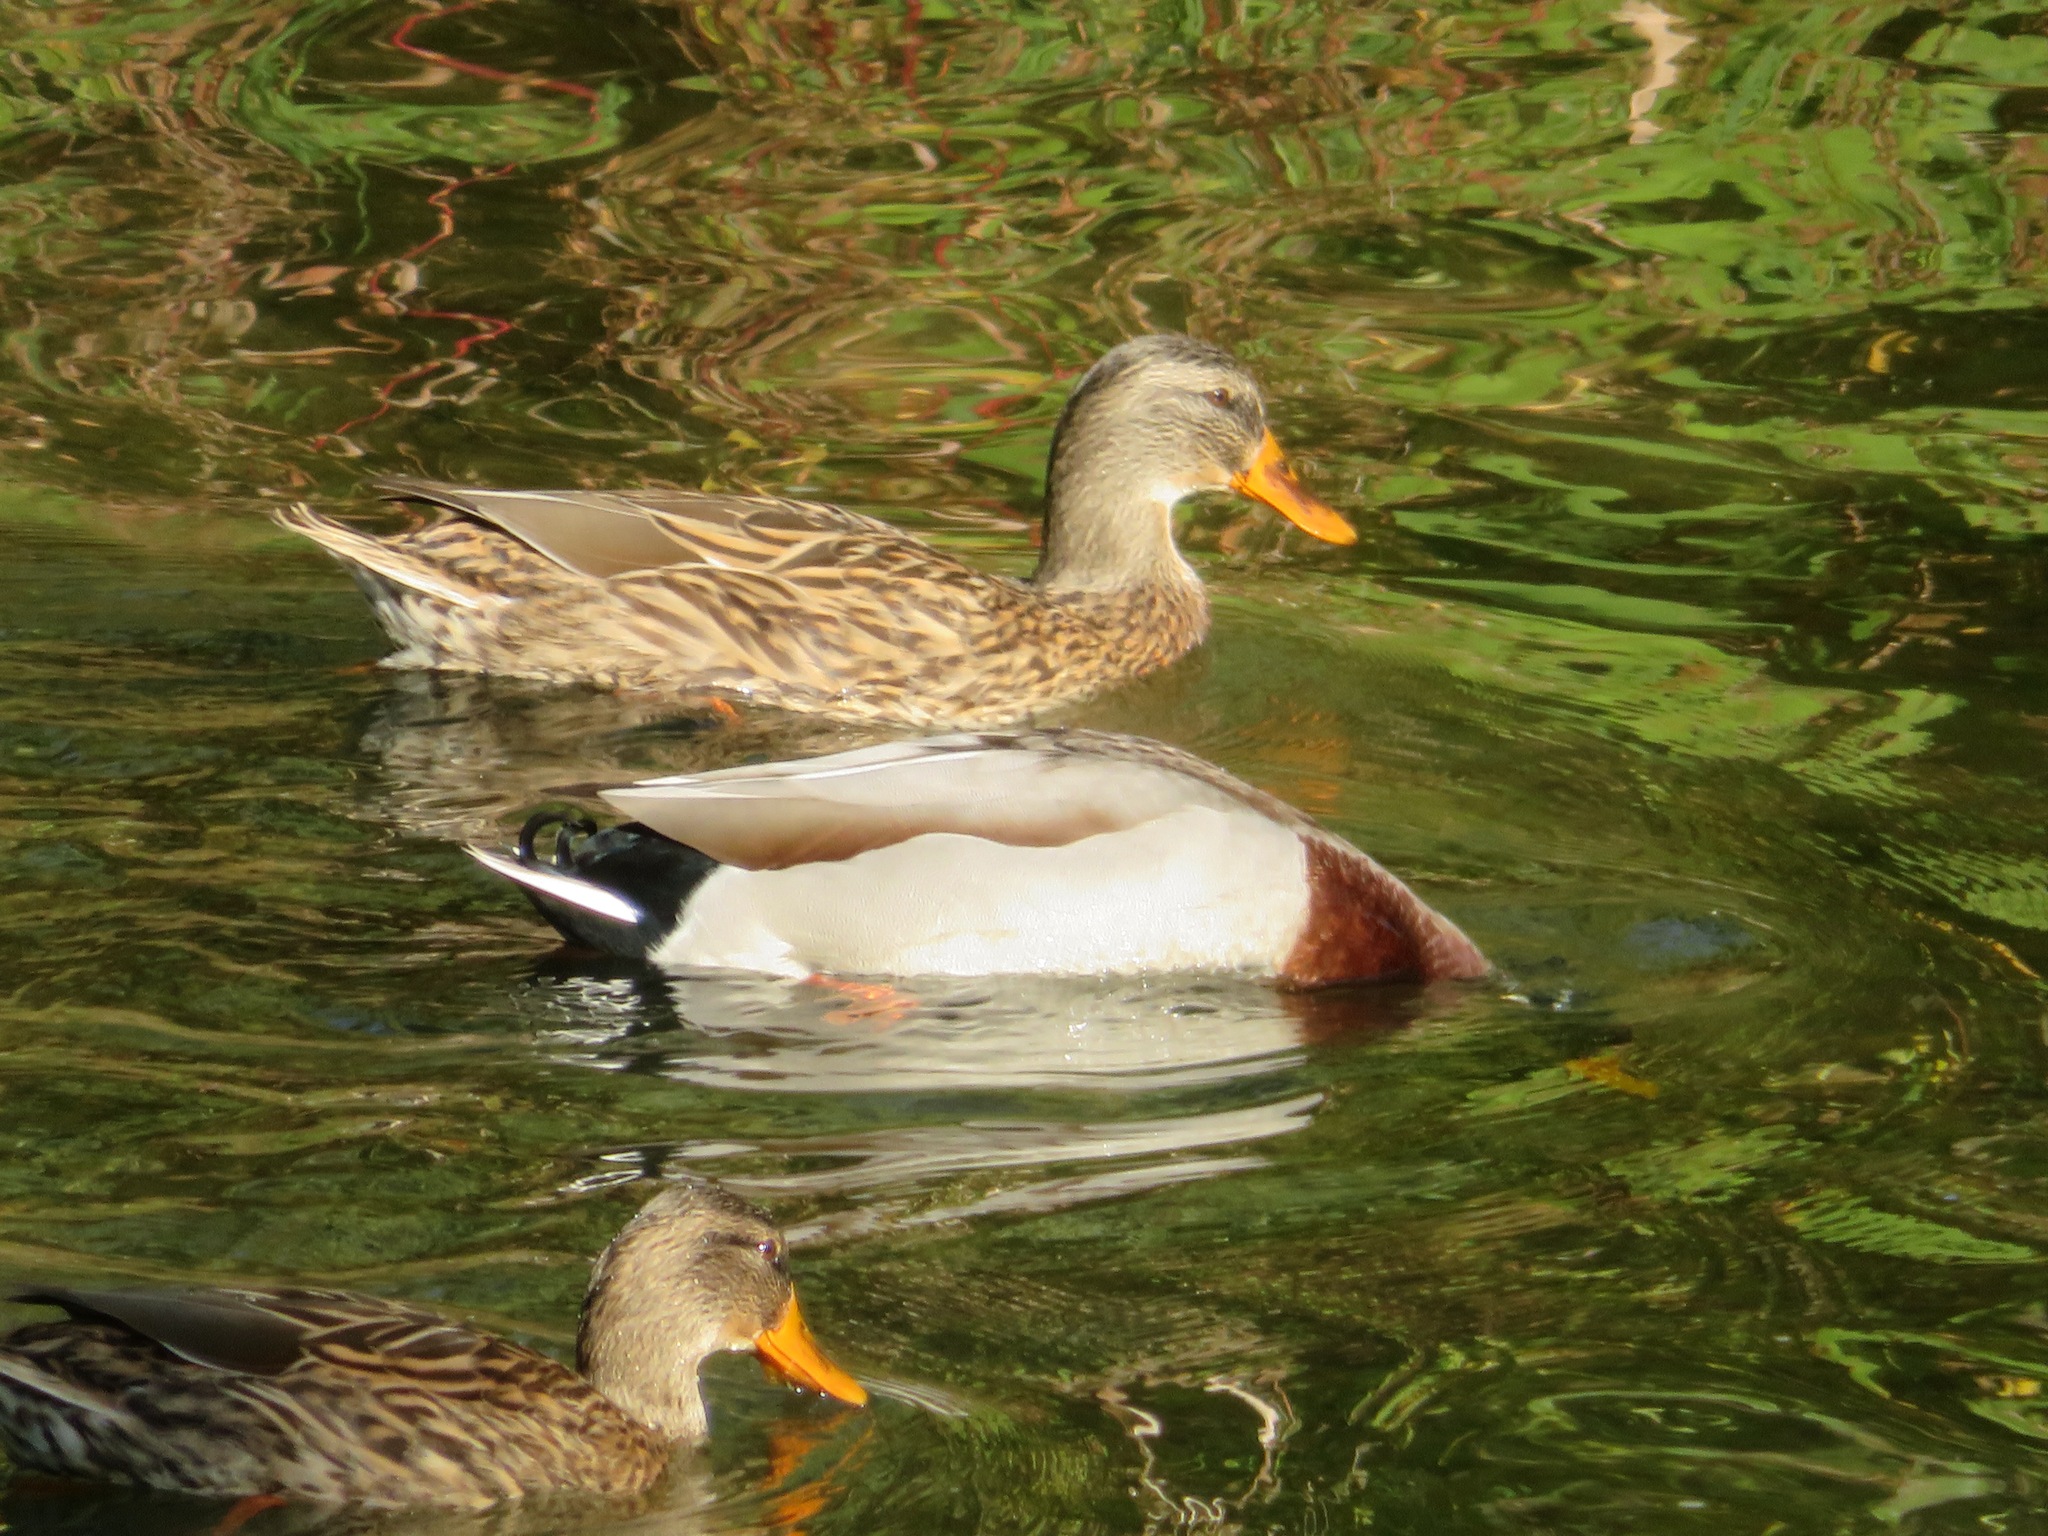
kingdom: Animalia
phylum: Chordata
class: Aves
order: Anseriformes
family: Anatidae
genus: Anas
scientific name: Anas platyrhynchos
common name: Mallard
